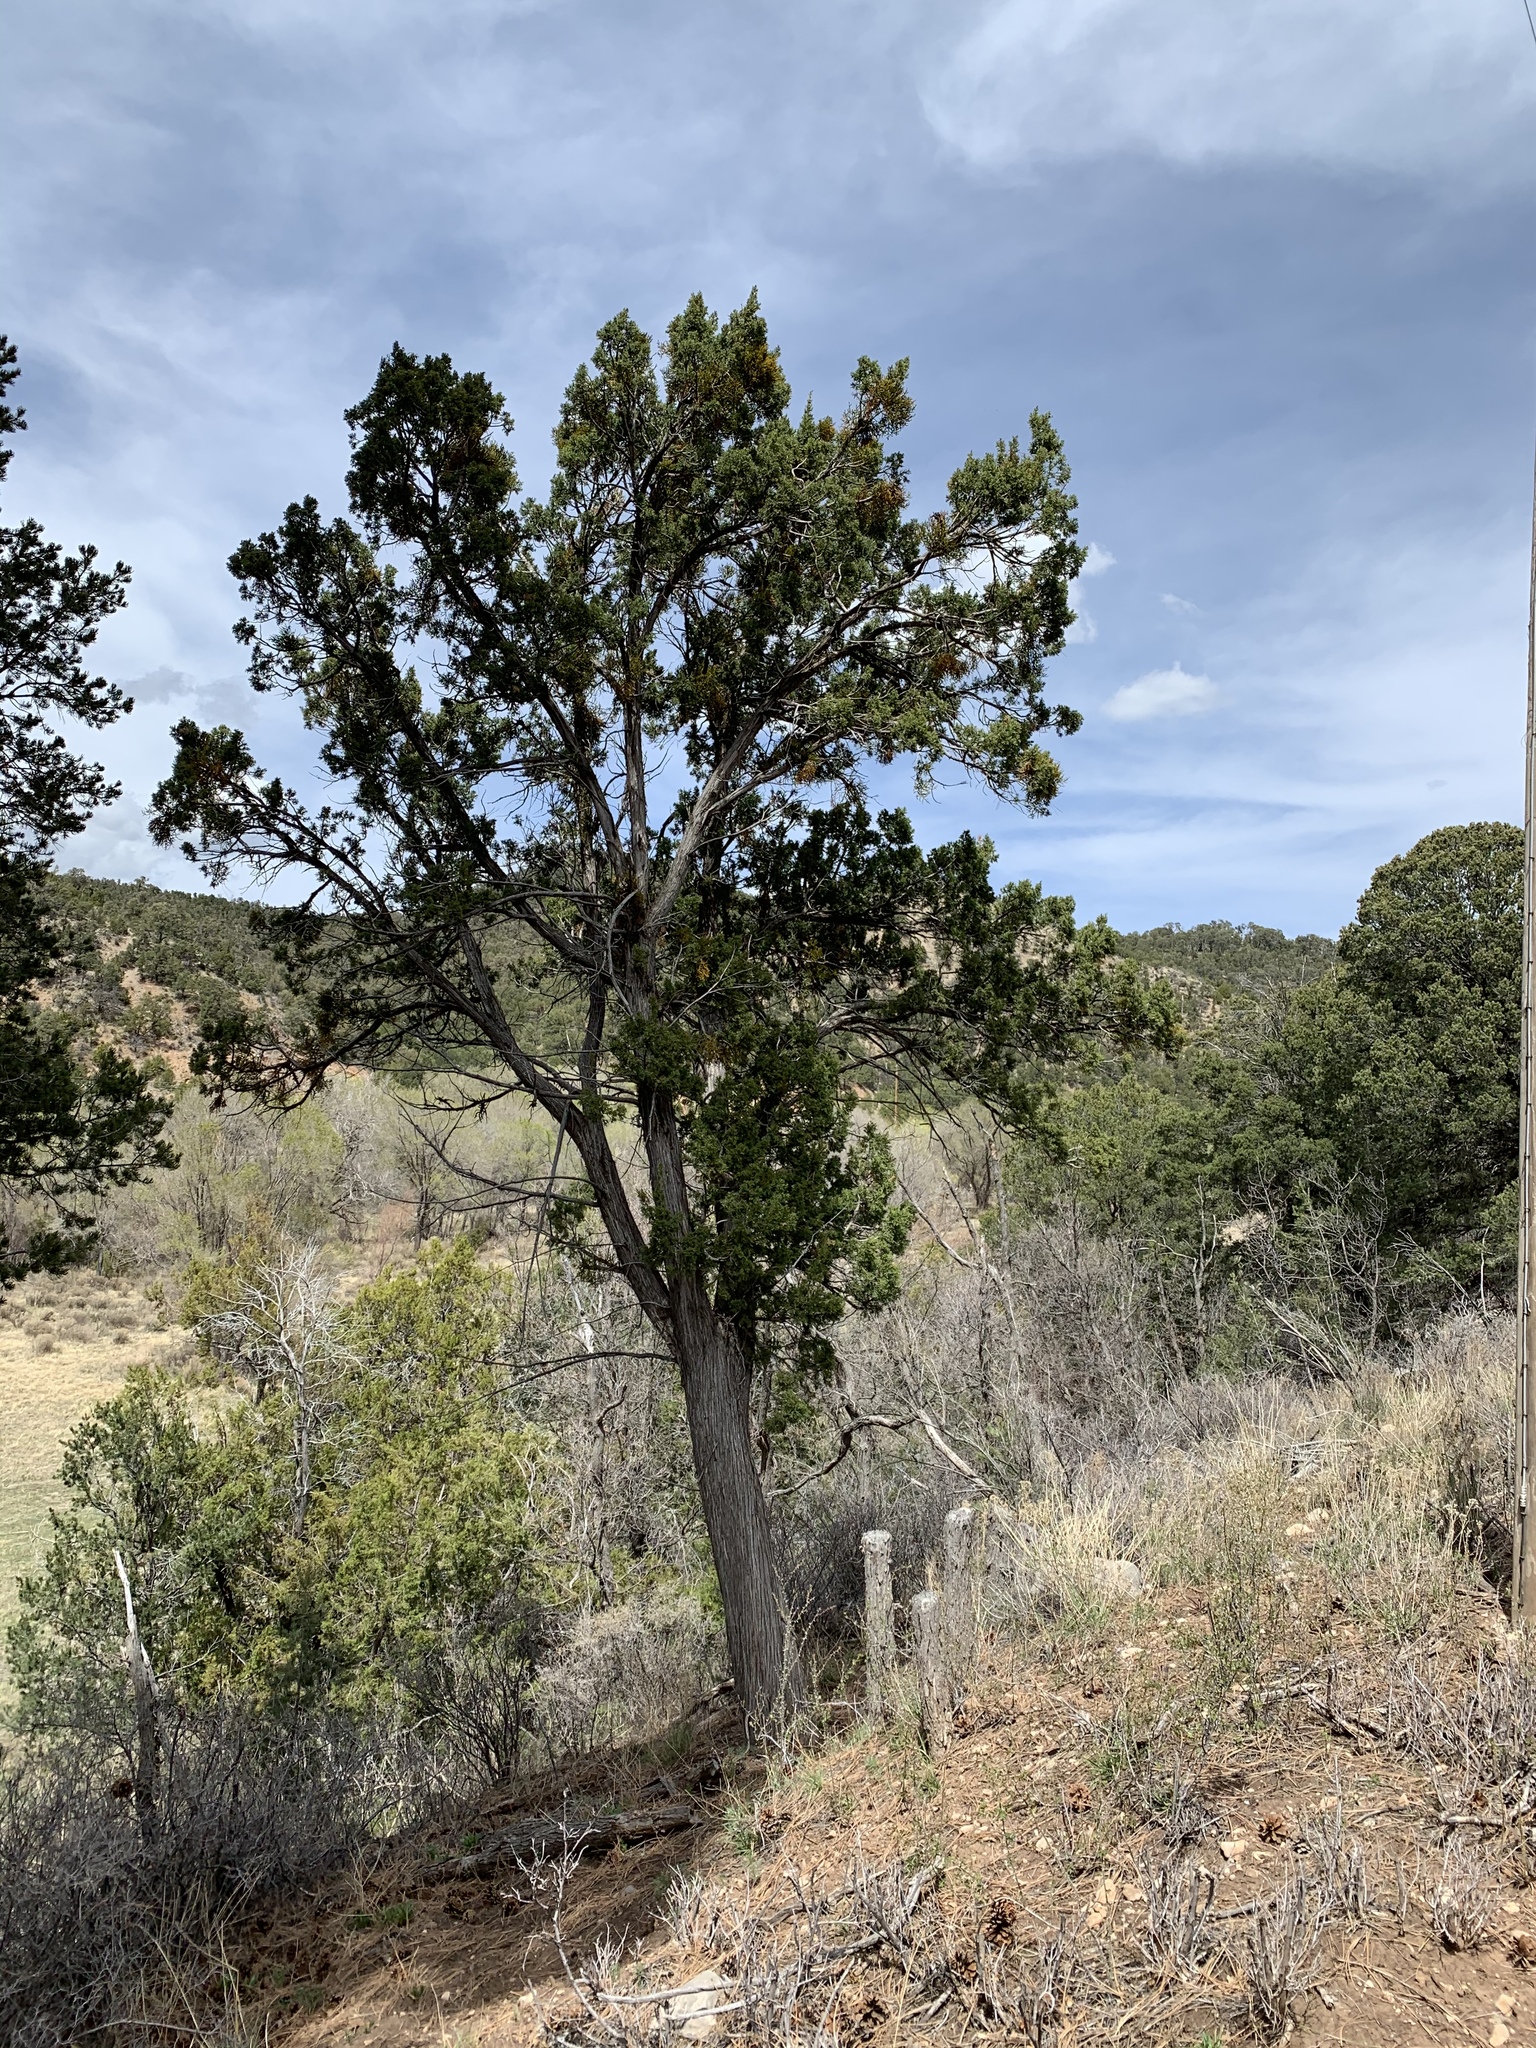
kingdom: Plantae
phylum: Tracheophyta
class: Pinopsida
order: Pinales
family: Cupressaceae
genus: Juniperus
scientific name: Juniperus monosperma
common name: One-seed juniper
